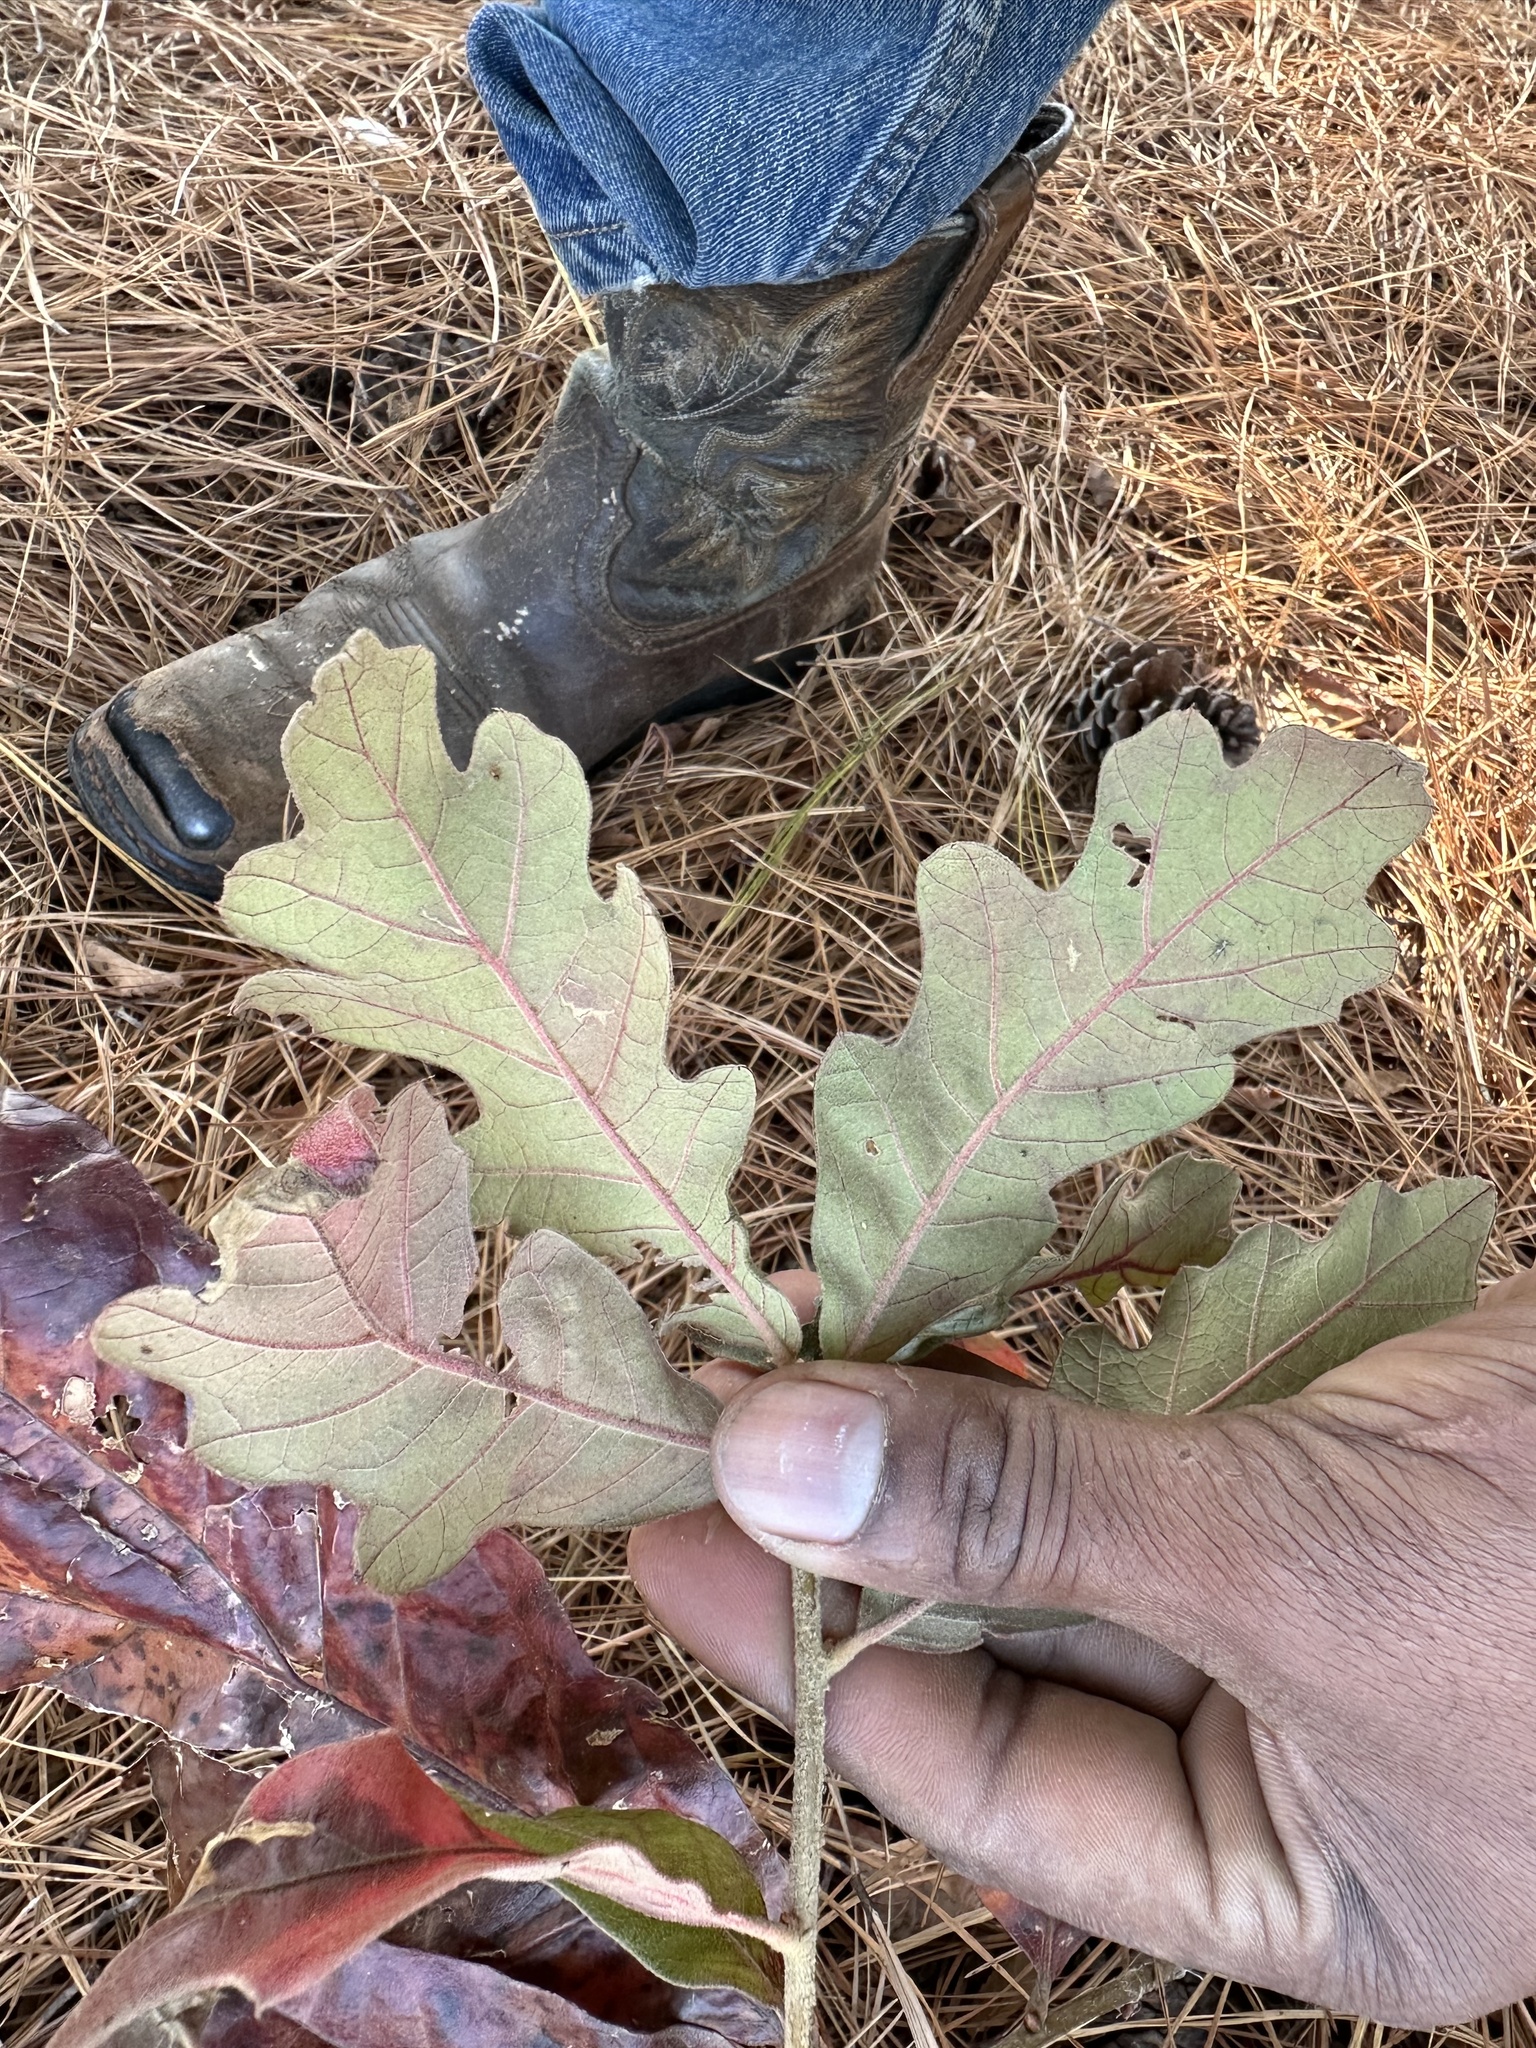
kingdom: Plantae
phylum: Tracheophyta
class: Magnoliopsida
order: Fagales
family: Fagaceae
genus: Quercus
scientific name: Quercus velutina
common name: Black oak
